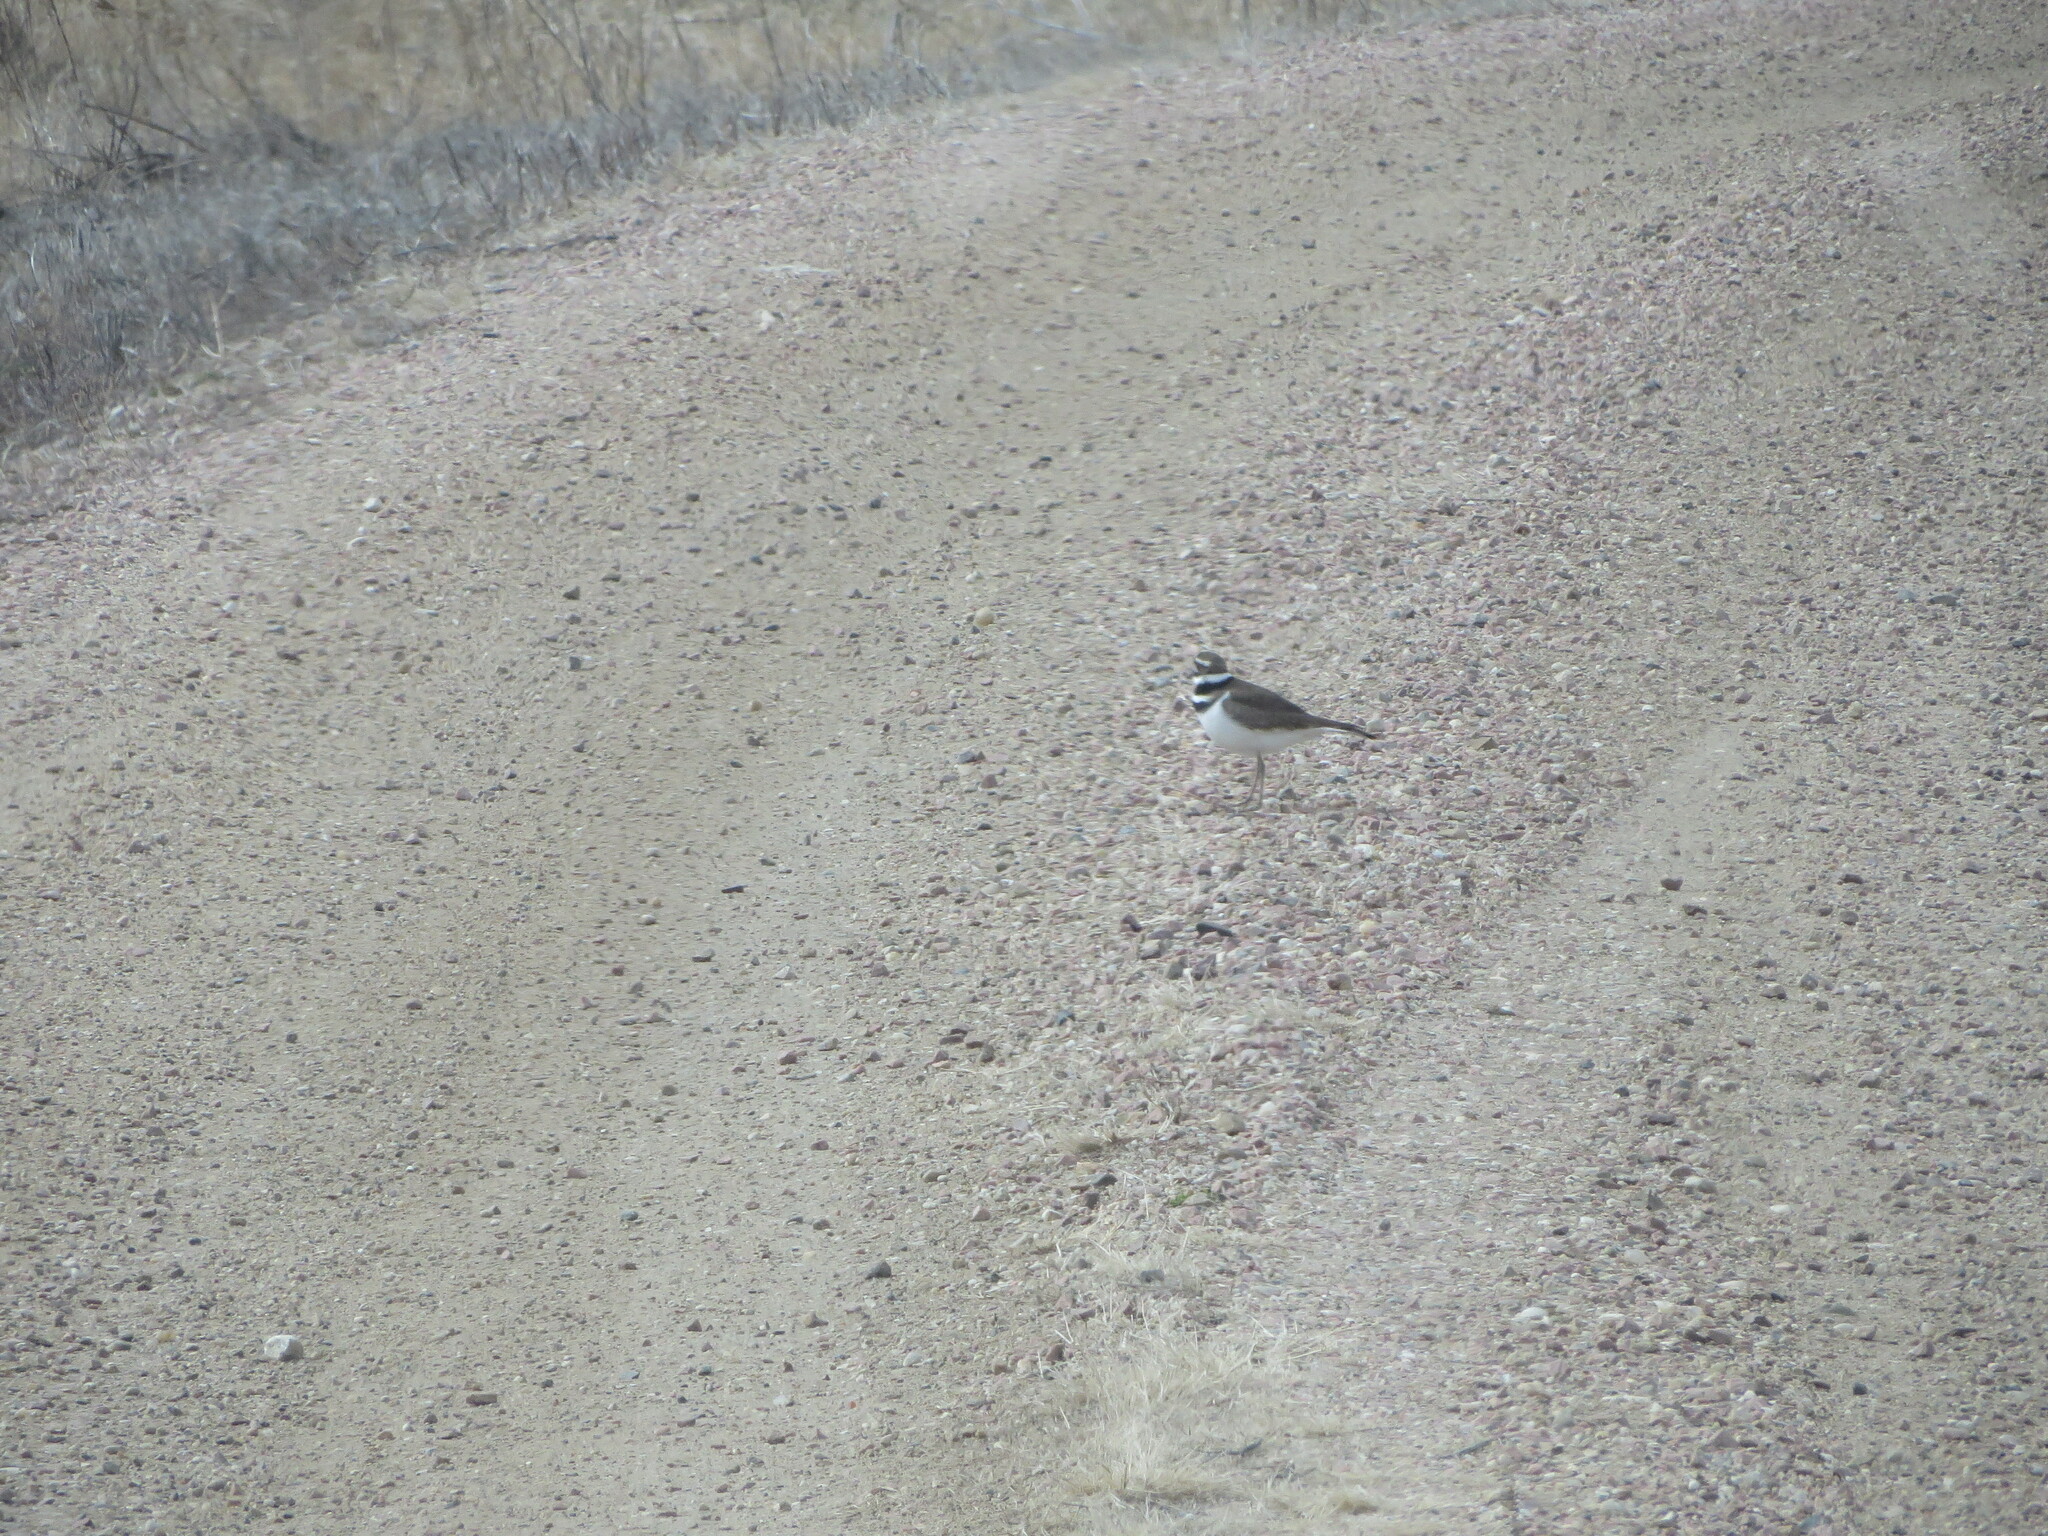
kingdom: Animalia
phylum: Chordata
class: Aves
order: Charadriiformes
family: Charadriidae
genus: Charadrius
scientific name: Charadrius vociferus
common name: Killdeer
